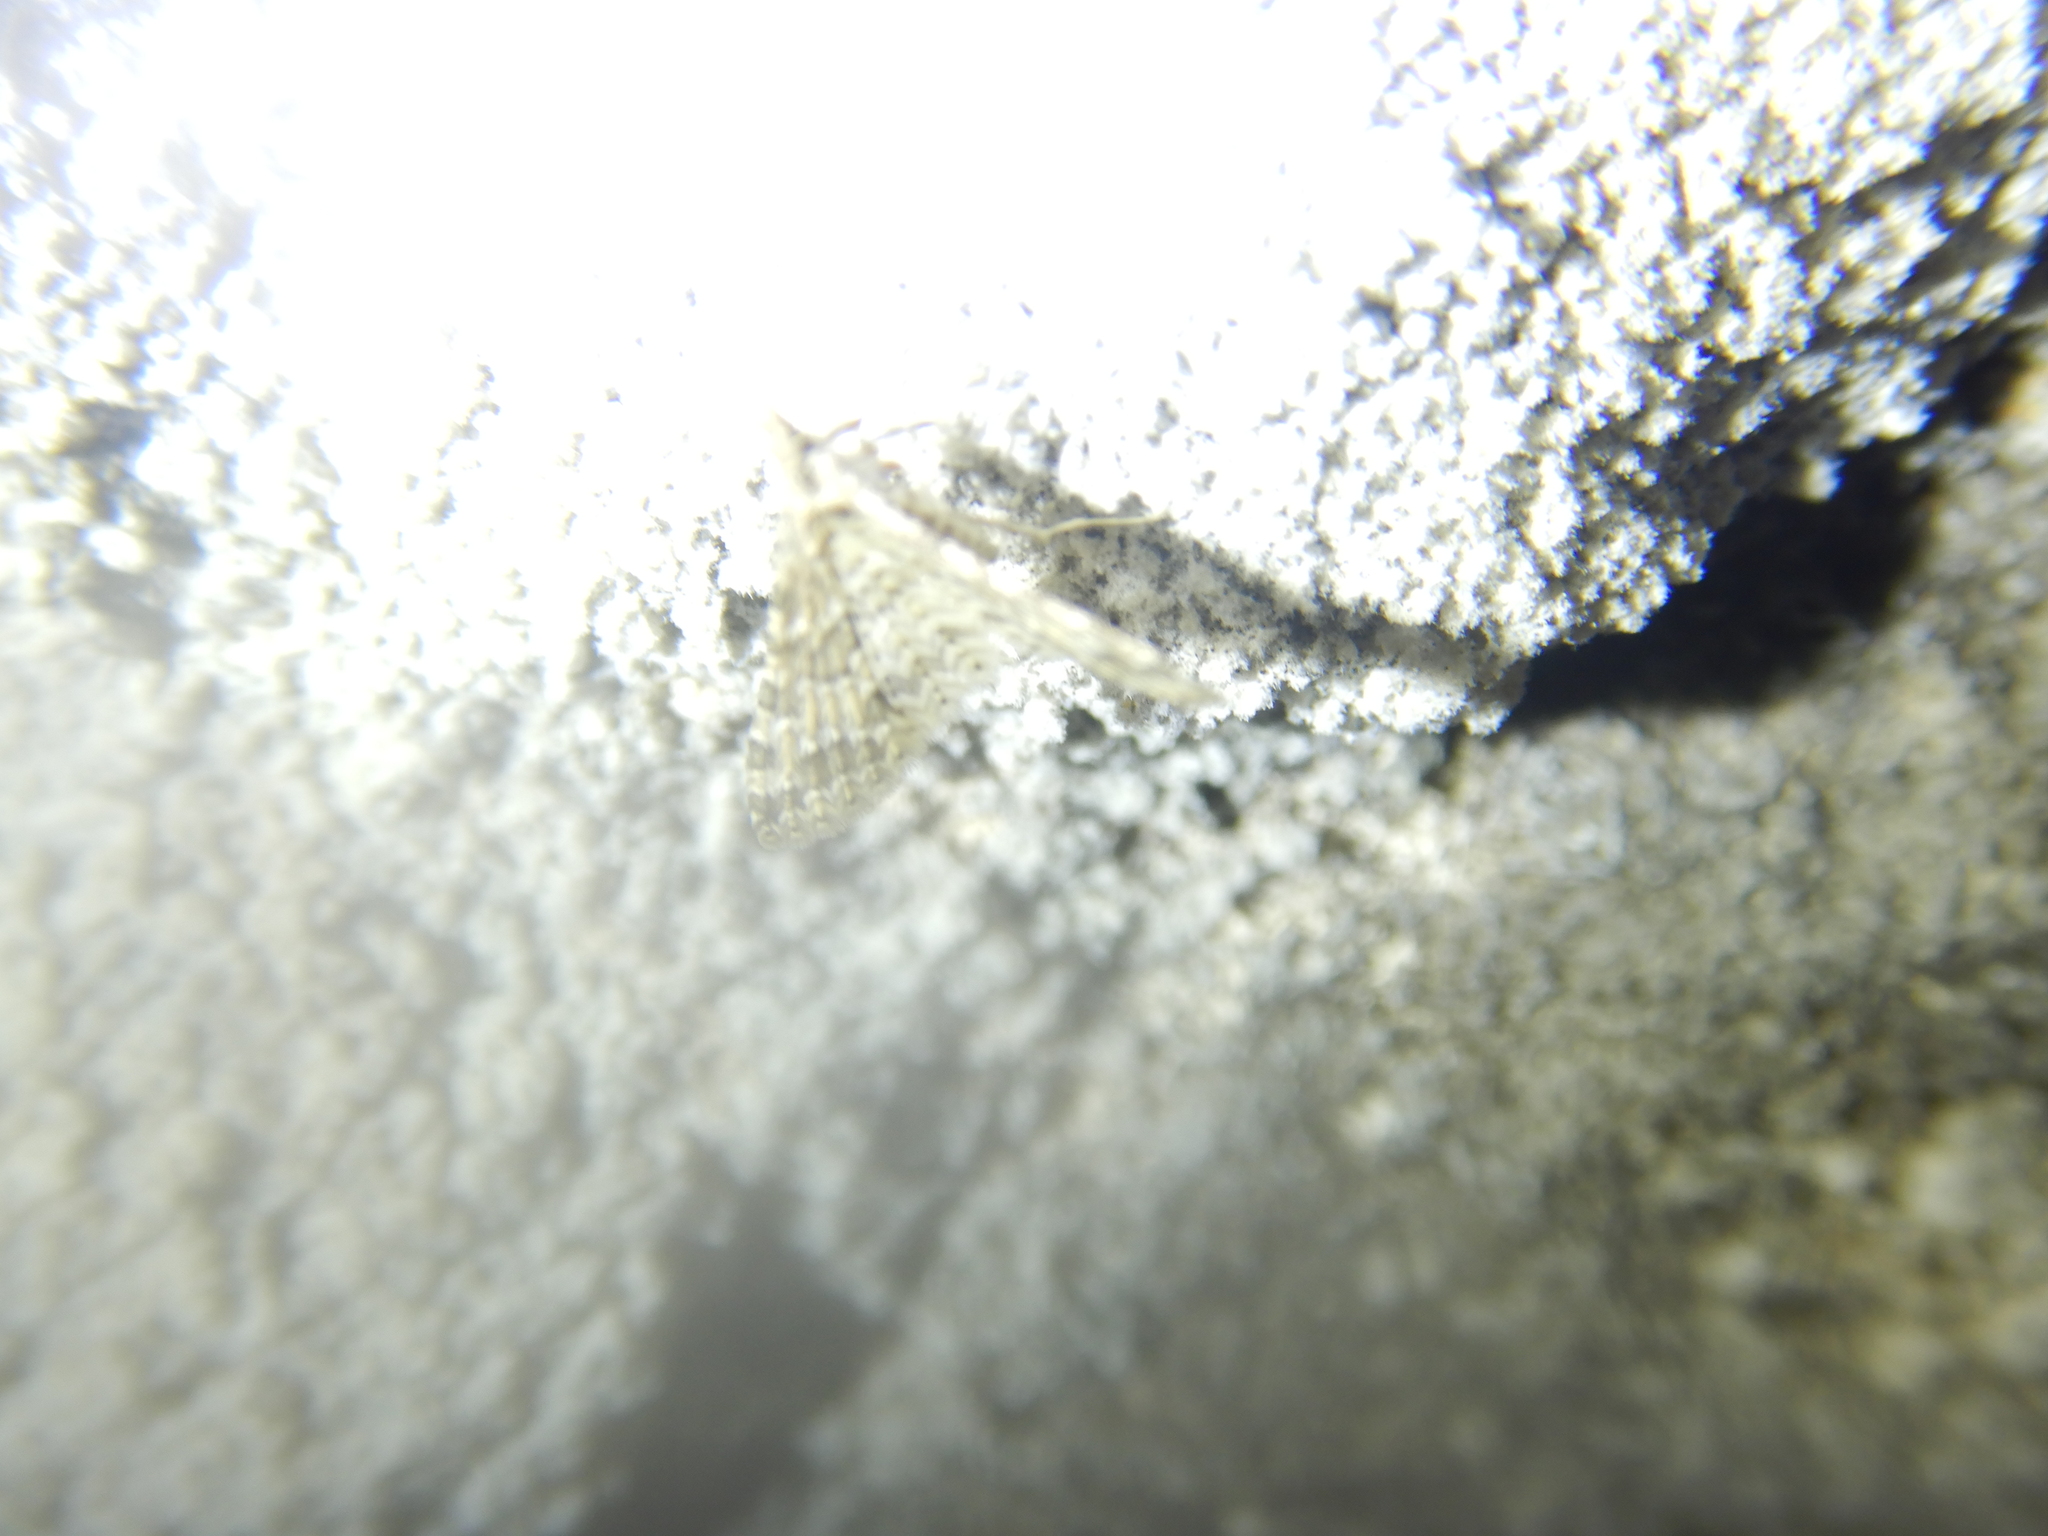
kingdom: Animalia
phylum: Arthropoda
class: Insecta
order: Lepidoptera
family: Geometridae
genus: Triphosa
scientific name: Triphosa sabaudiata
